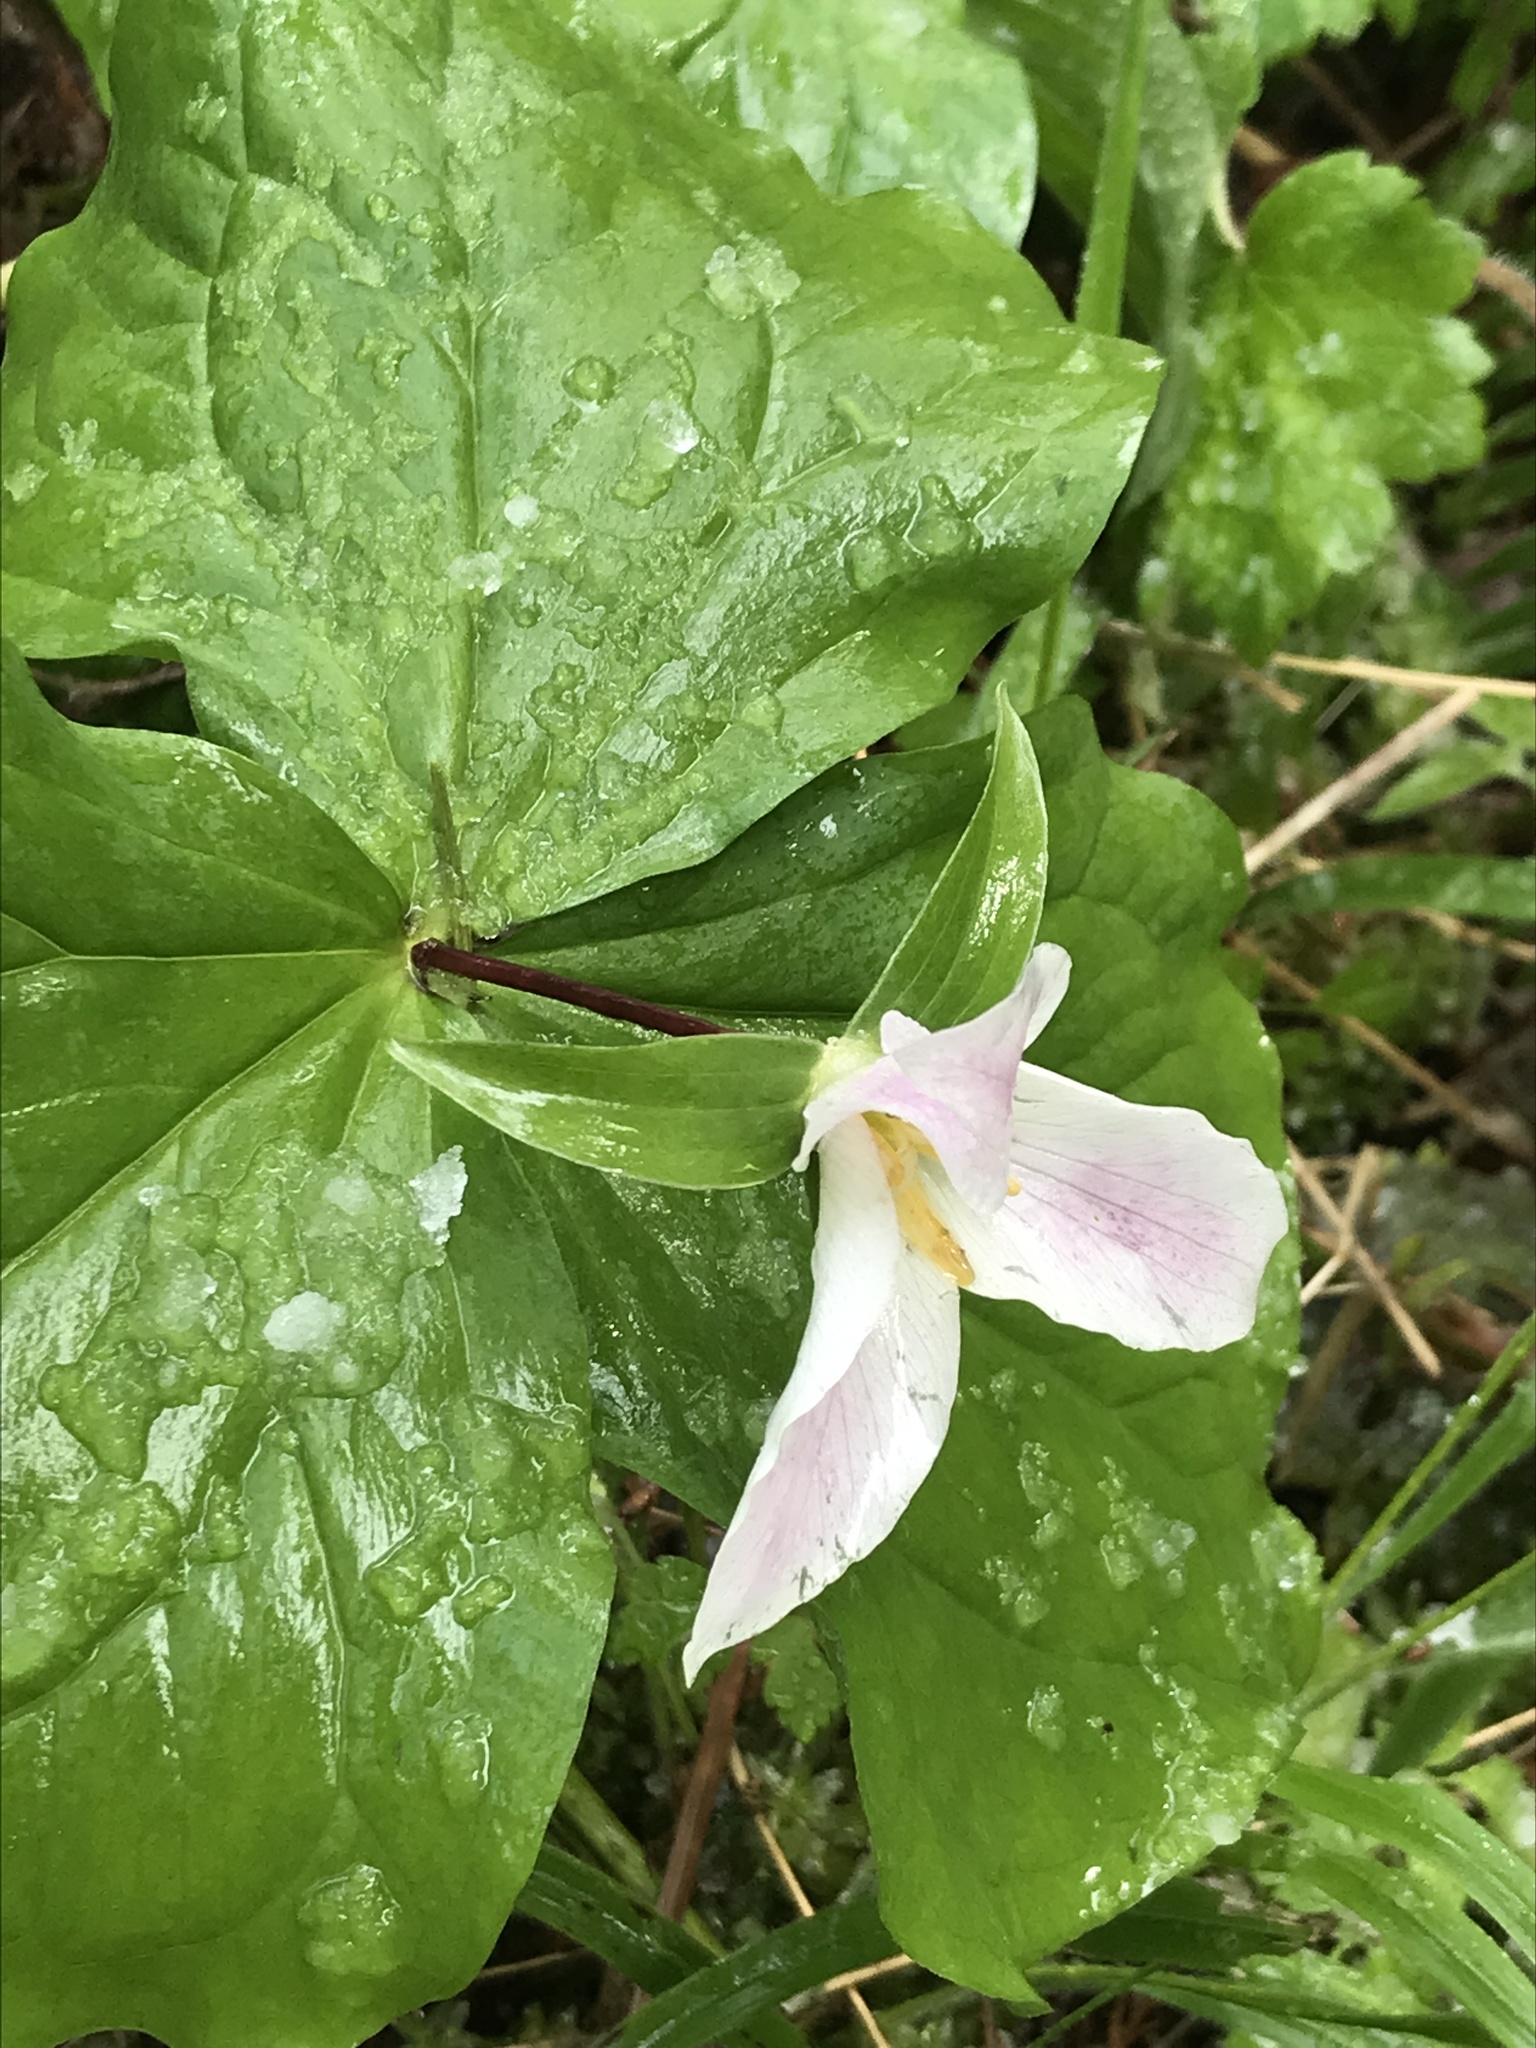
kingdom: Plantae
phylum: Tracheophyta
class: Liliopsida
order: Liliales
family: Melanthiaceae
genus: Trillium
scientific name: Trillium ovatum
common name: Pacific trillium
